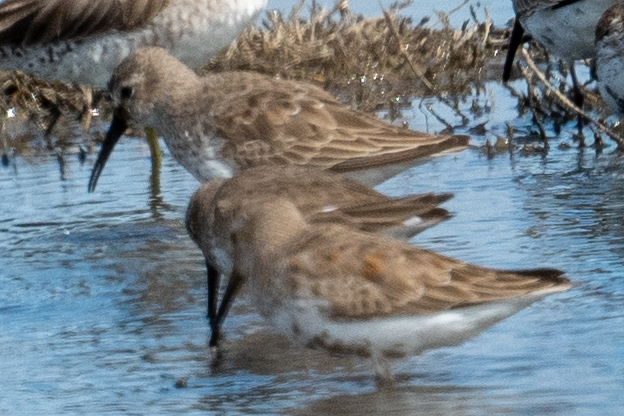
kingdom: Animalia
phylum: Chordata
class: Aves
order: Charadriiformes
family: Scolopacidae
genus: Calidris
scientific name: Calidris alpina
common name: Dunlin
